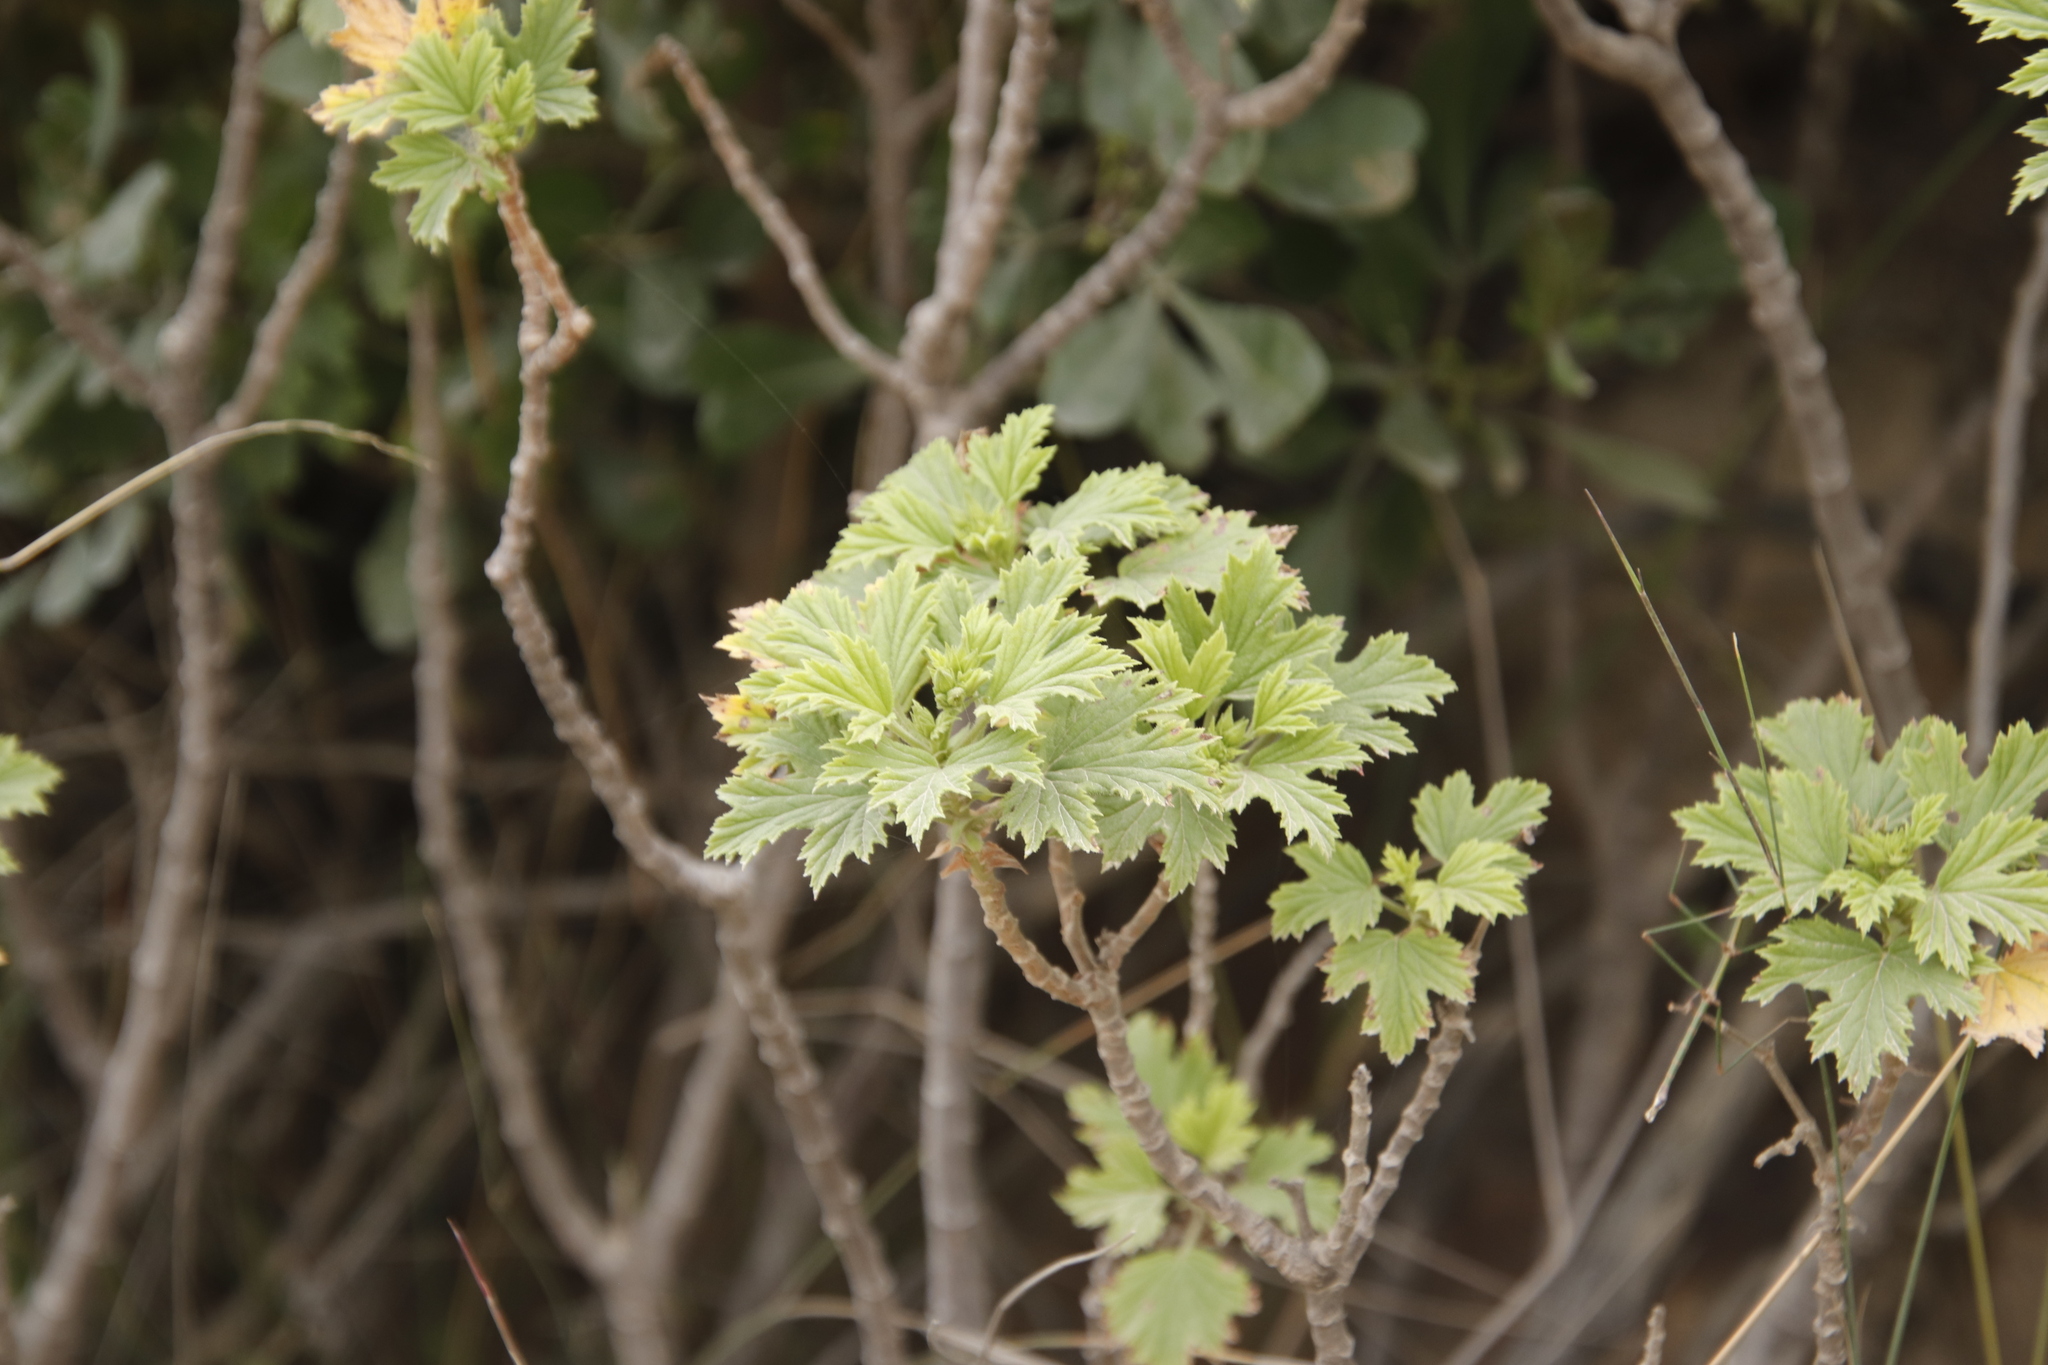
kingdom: Plantae
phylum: Tracheophyta
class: Magnoliopsida
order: Geraniales
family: Geraniaceae
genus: Pelargonium
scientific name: Pelargonium ribifolium
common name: Currant-leaf pelargonium
